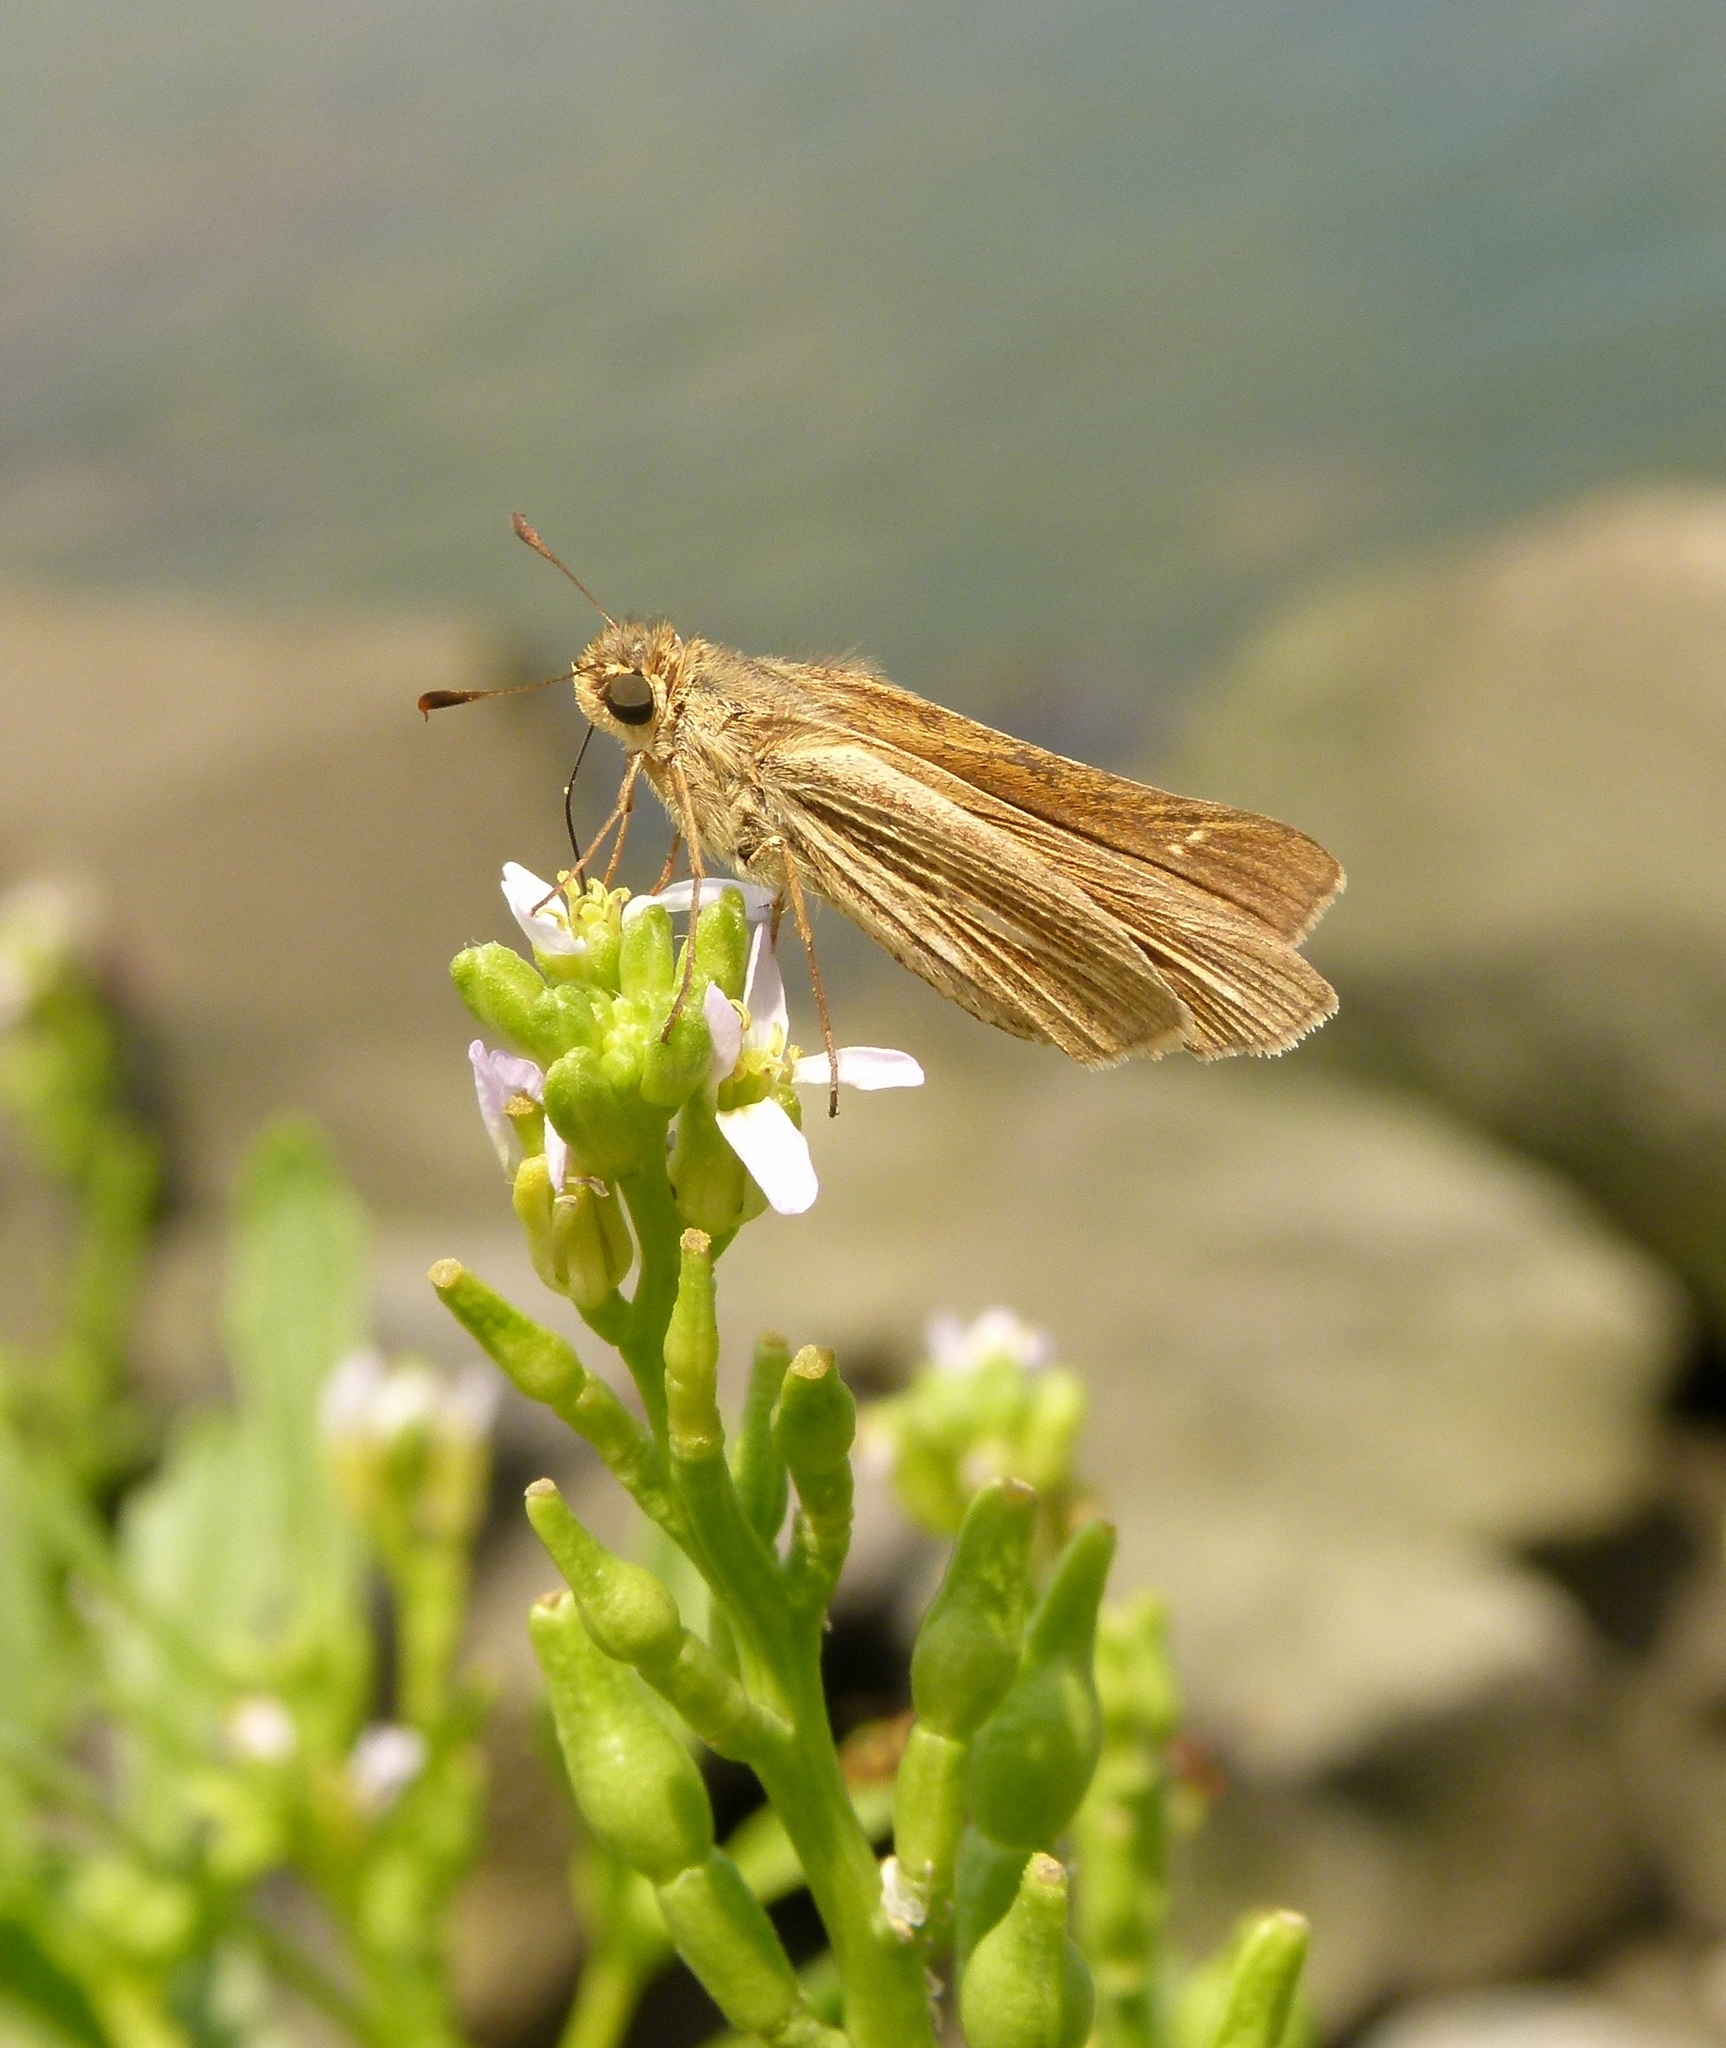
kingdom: Animalia
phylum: Arthropoda
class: Insecta
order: Lepidoptera
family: Hesperiidae
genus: Panoquina
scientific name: Panoquina panoquin
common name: Salt marsh skipper
